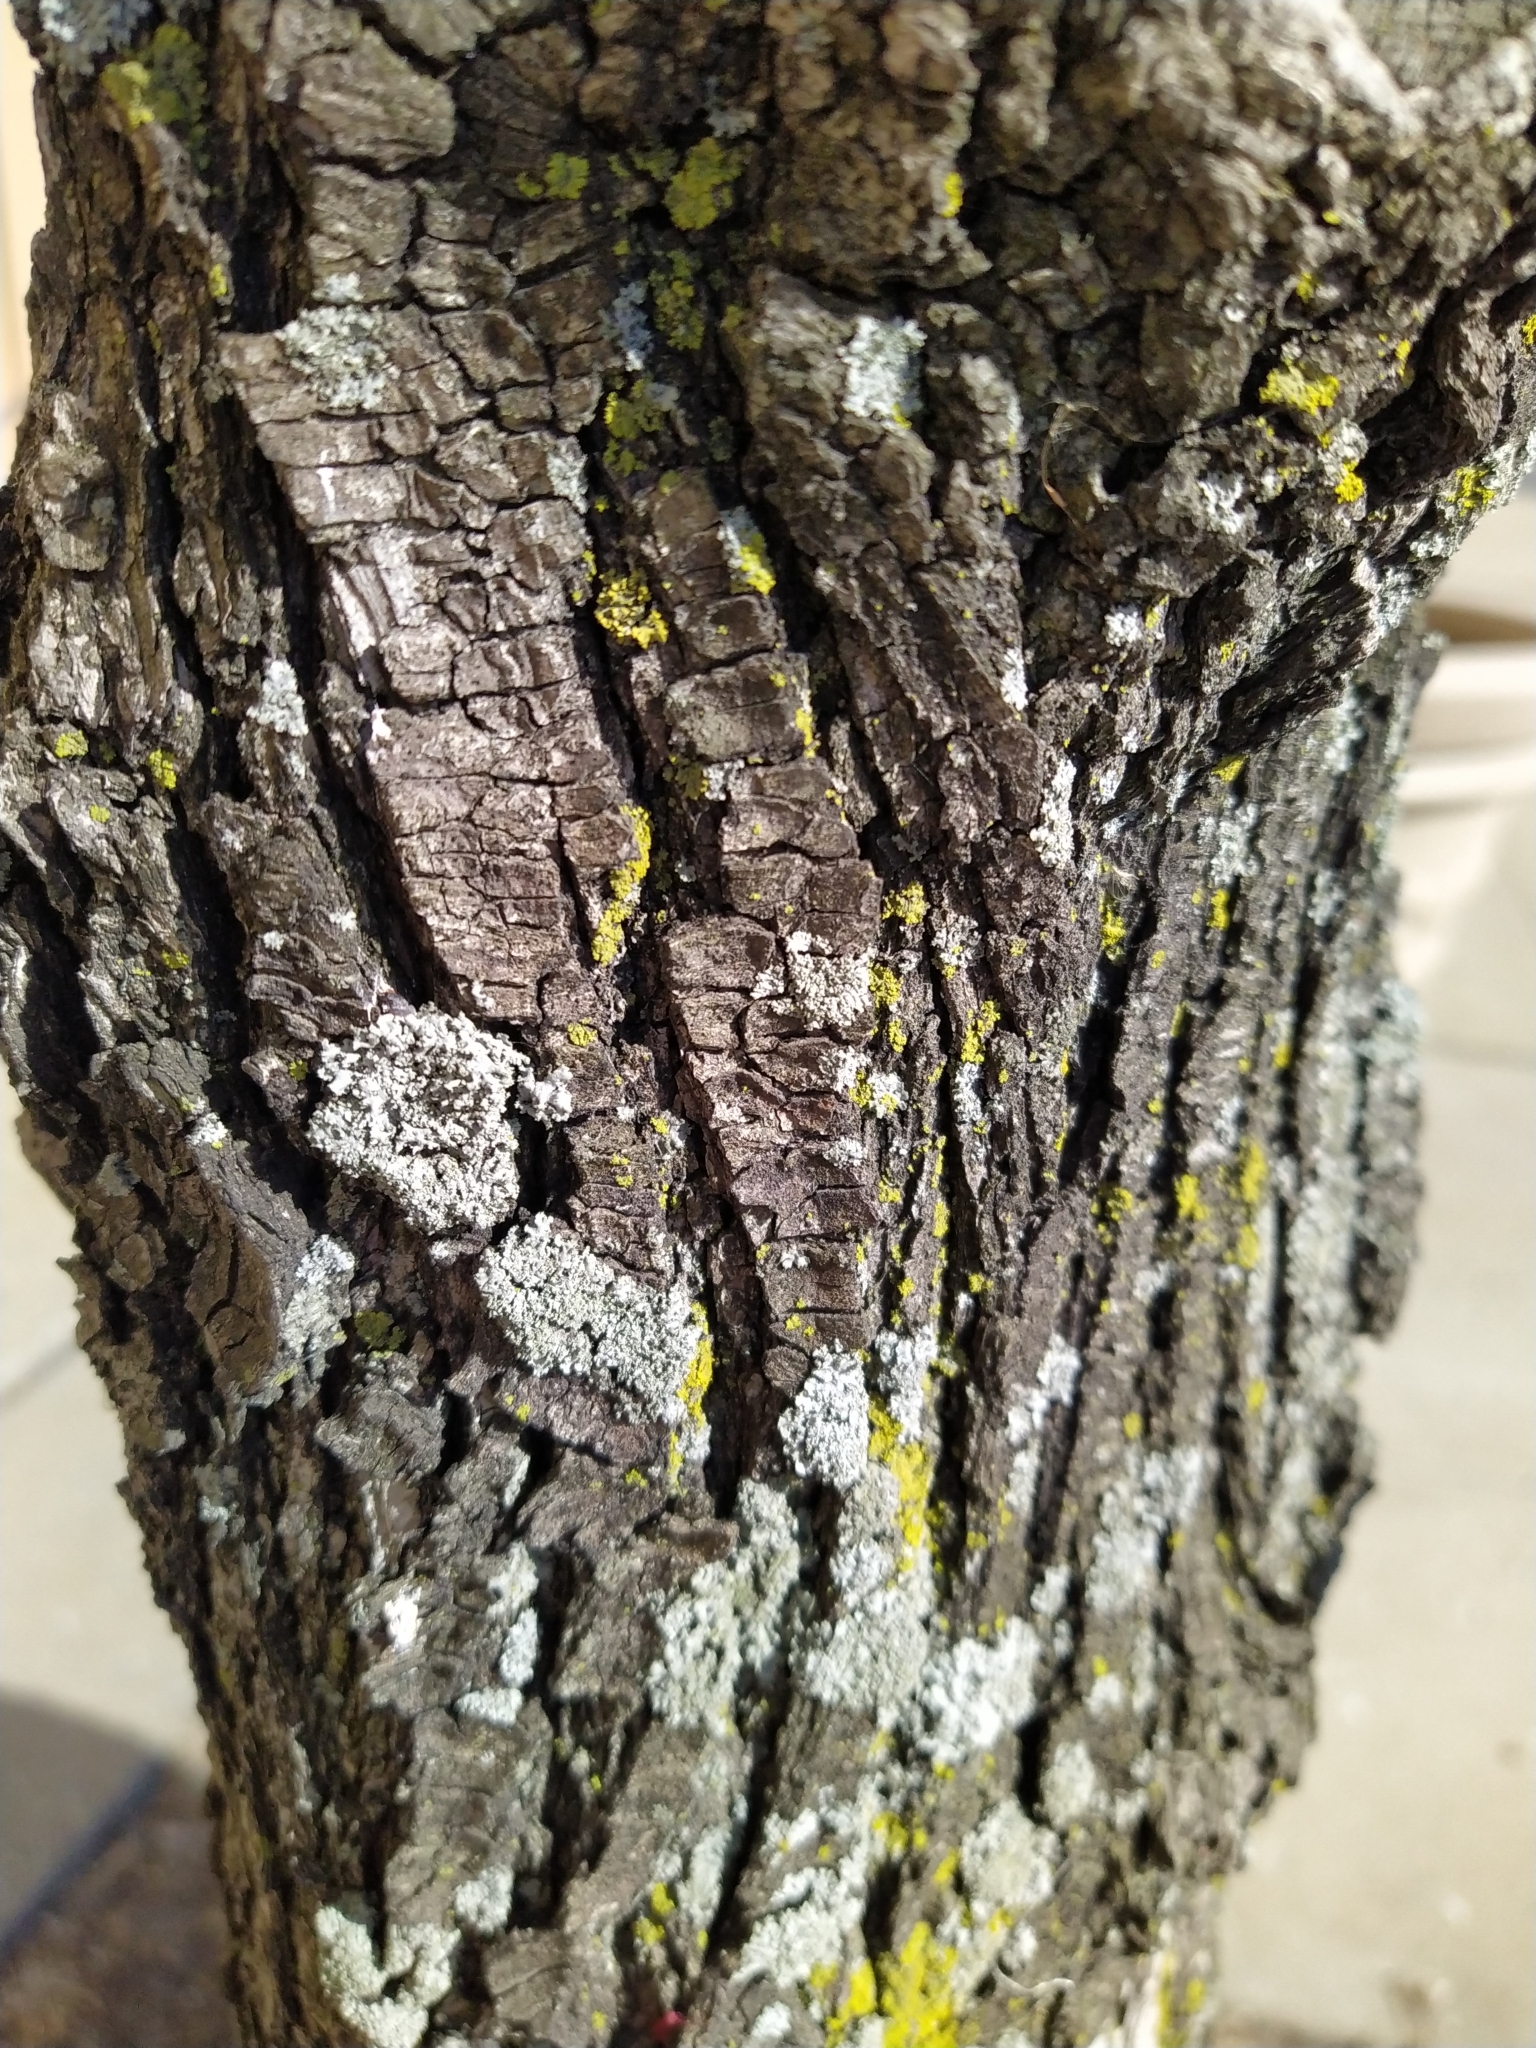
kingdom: Fungi
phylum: Ascomycota
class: Candelariomycetes
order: Candelariales
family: Candelariaceae
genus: Candelaria
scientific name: Candelaria concolor
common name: Candleflame lichen
